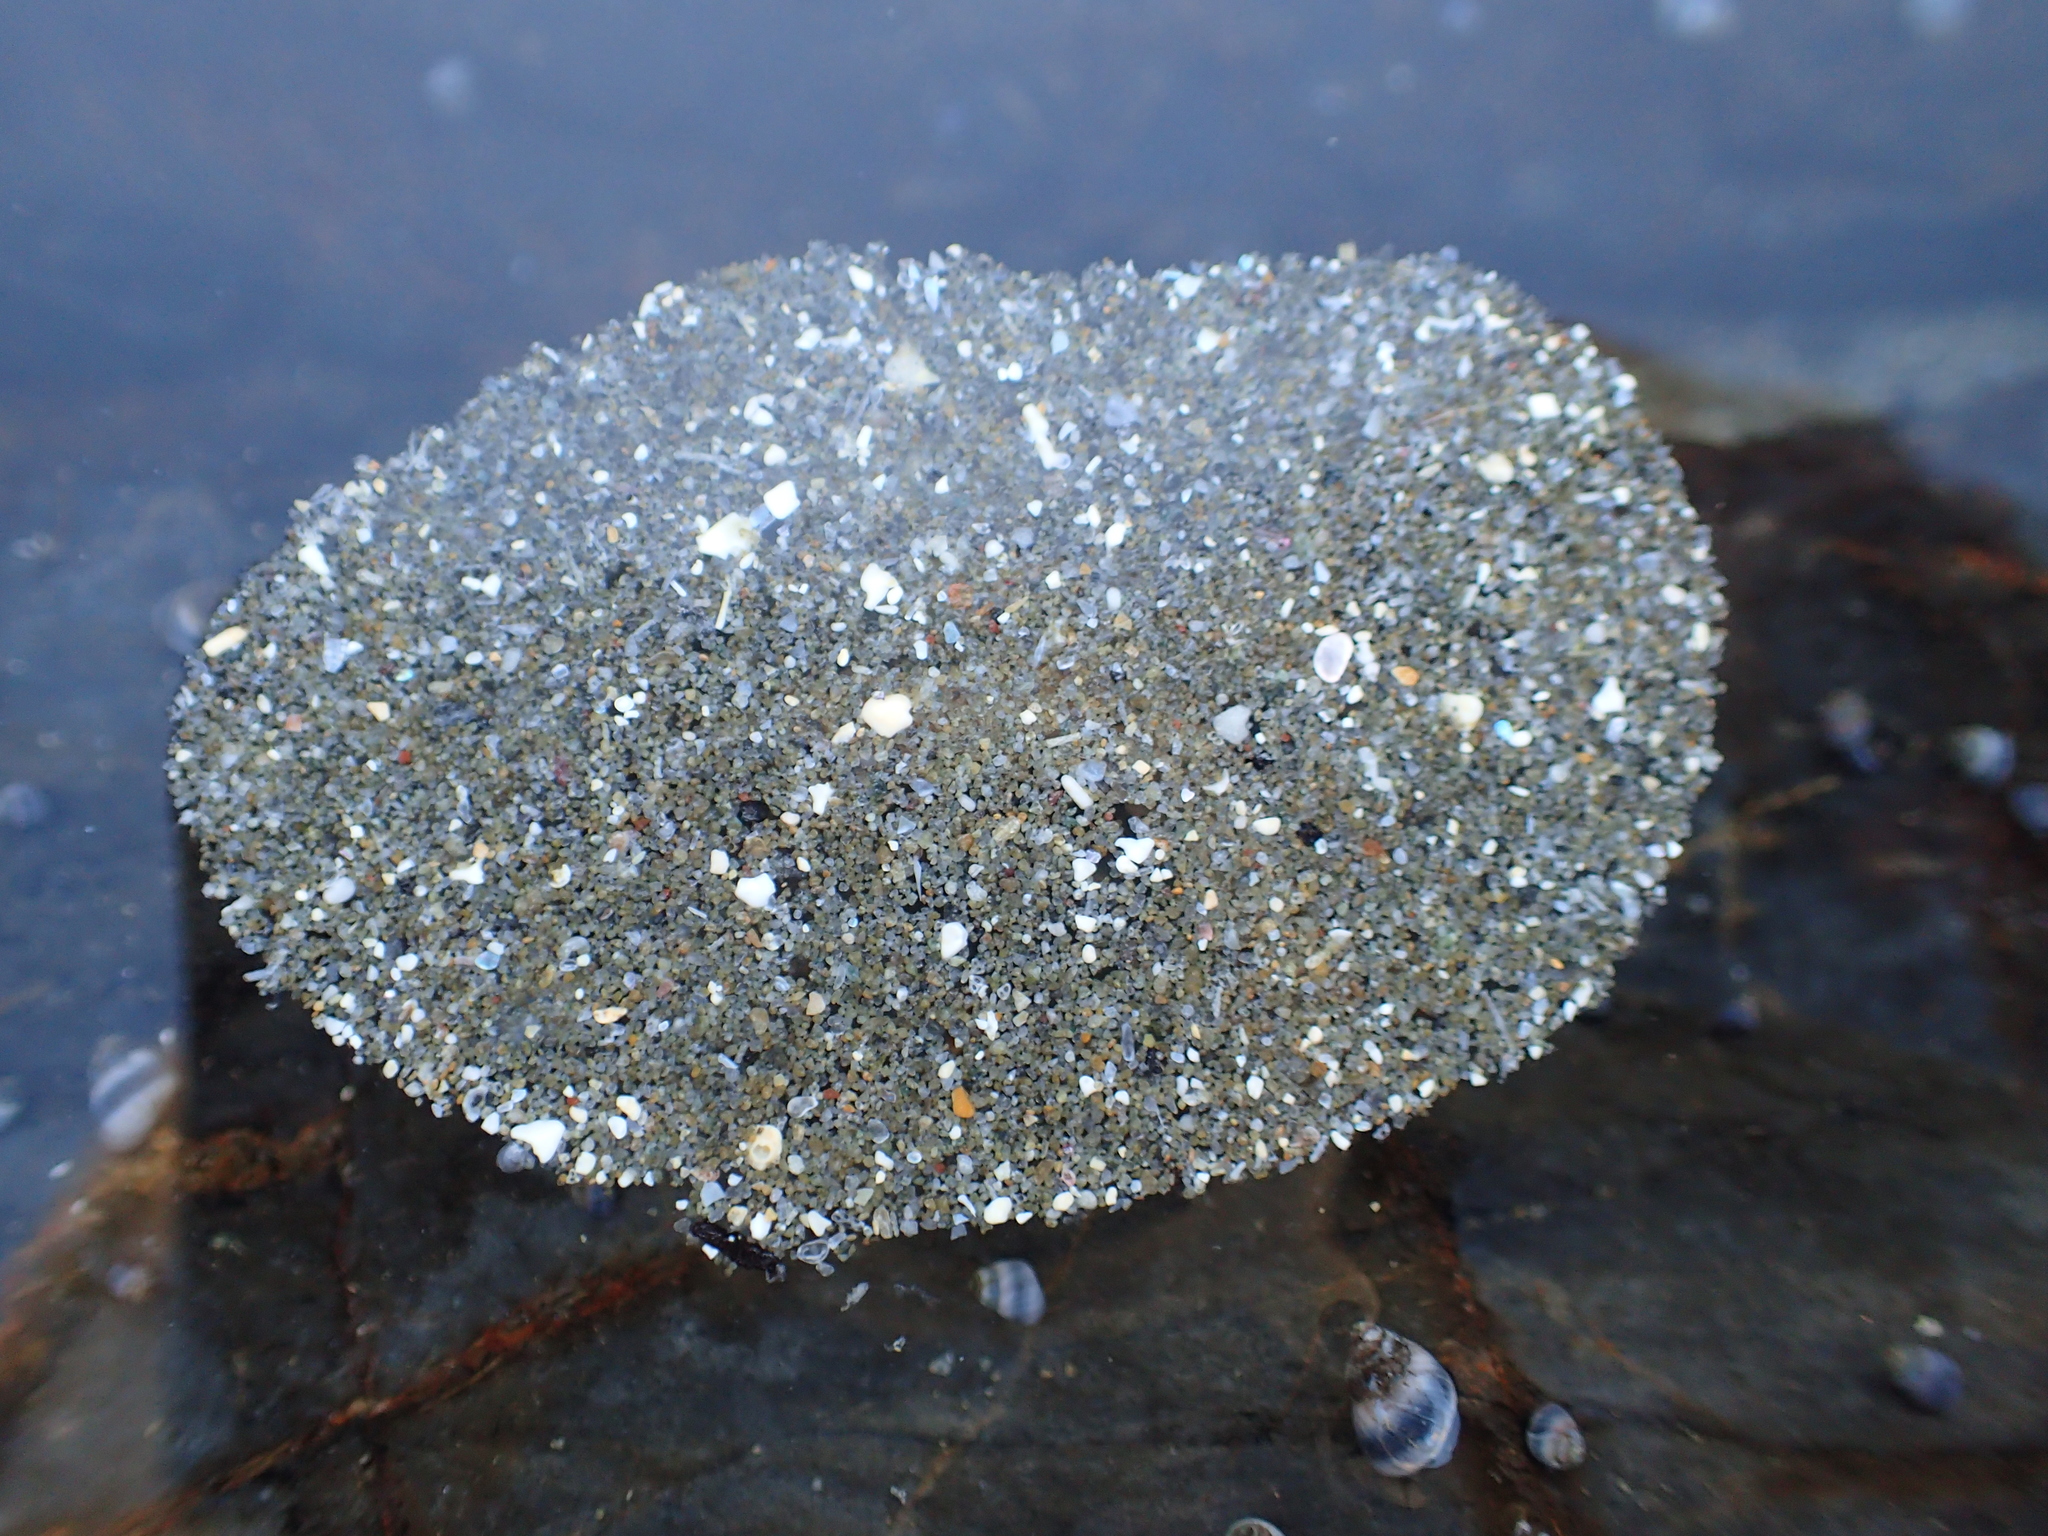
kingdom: Animalia
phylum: Mollusca
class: Gastropoda
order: Littorinimorpha
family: Littorinidae
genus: Austrolittorina
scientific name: Austrolittorina antipodum
